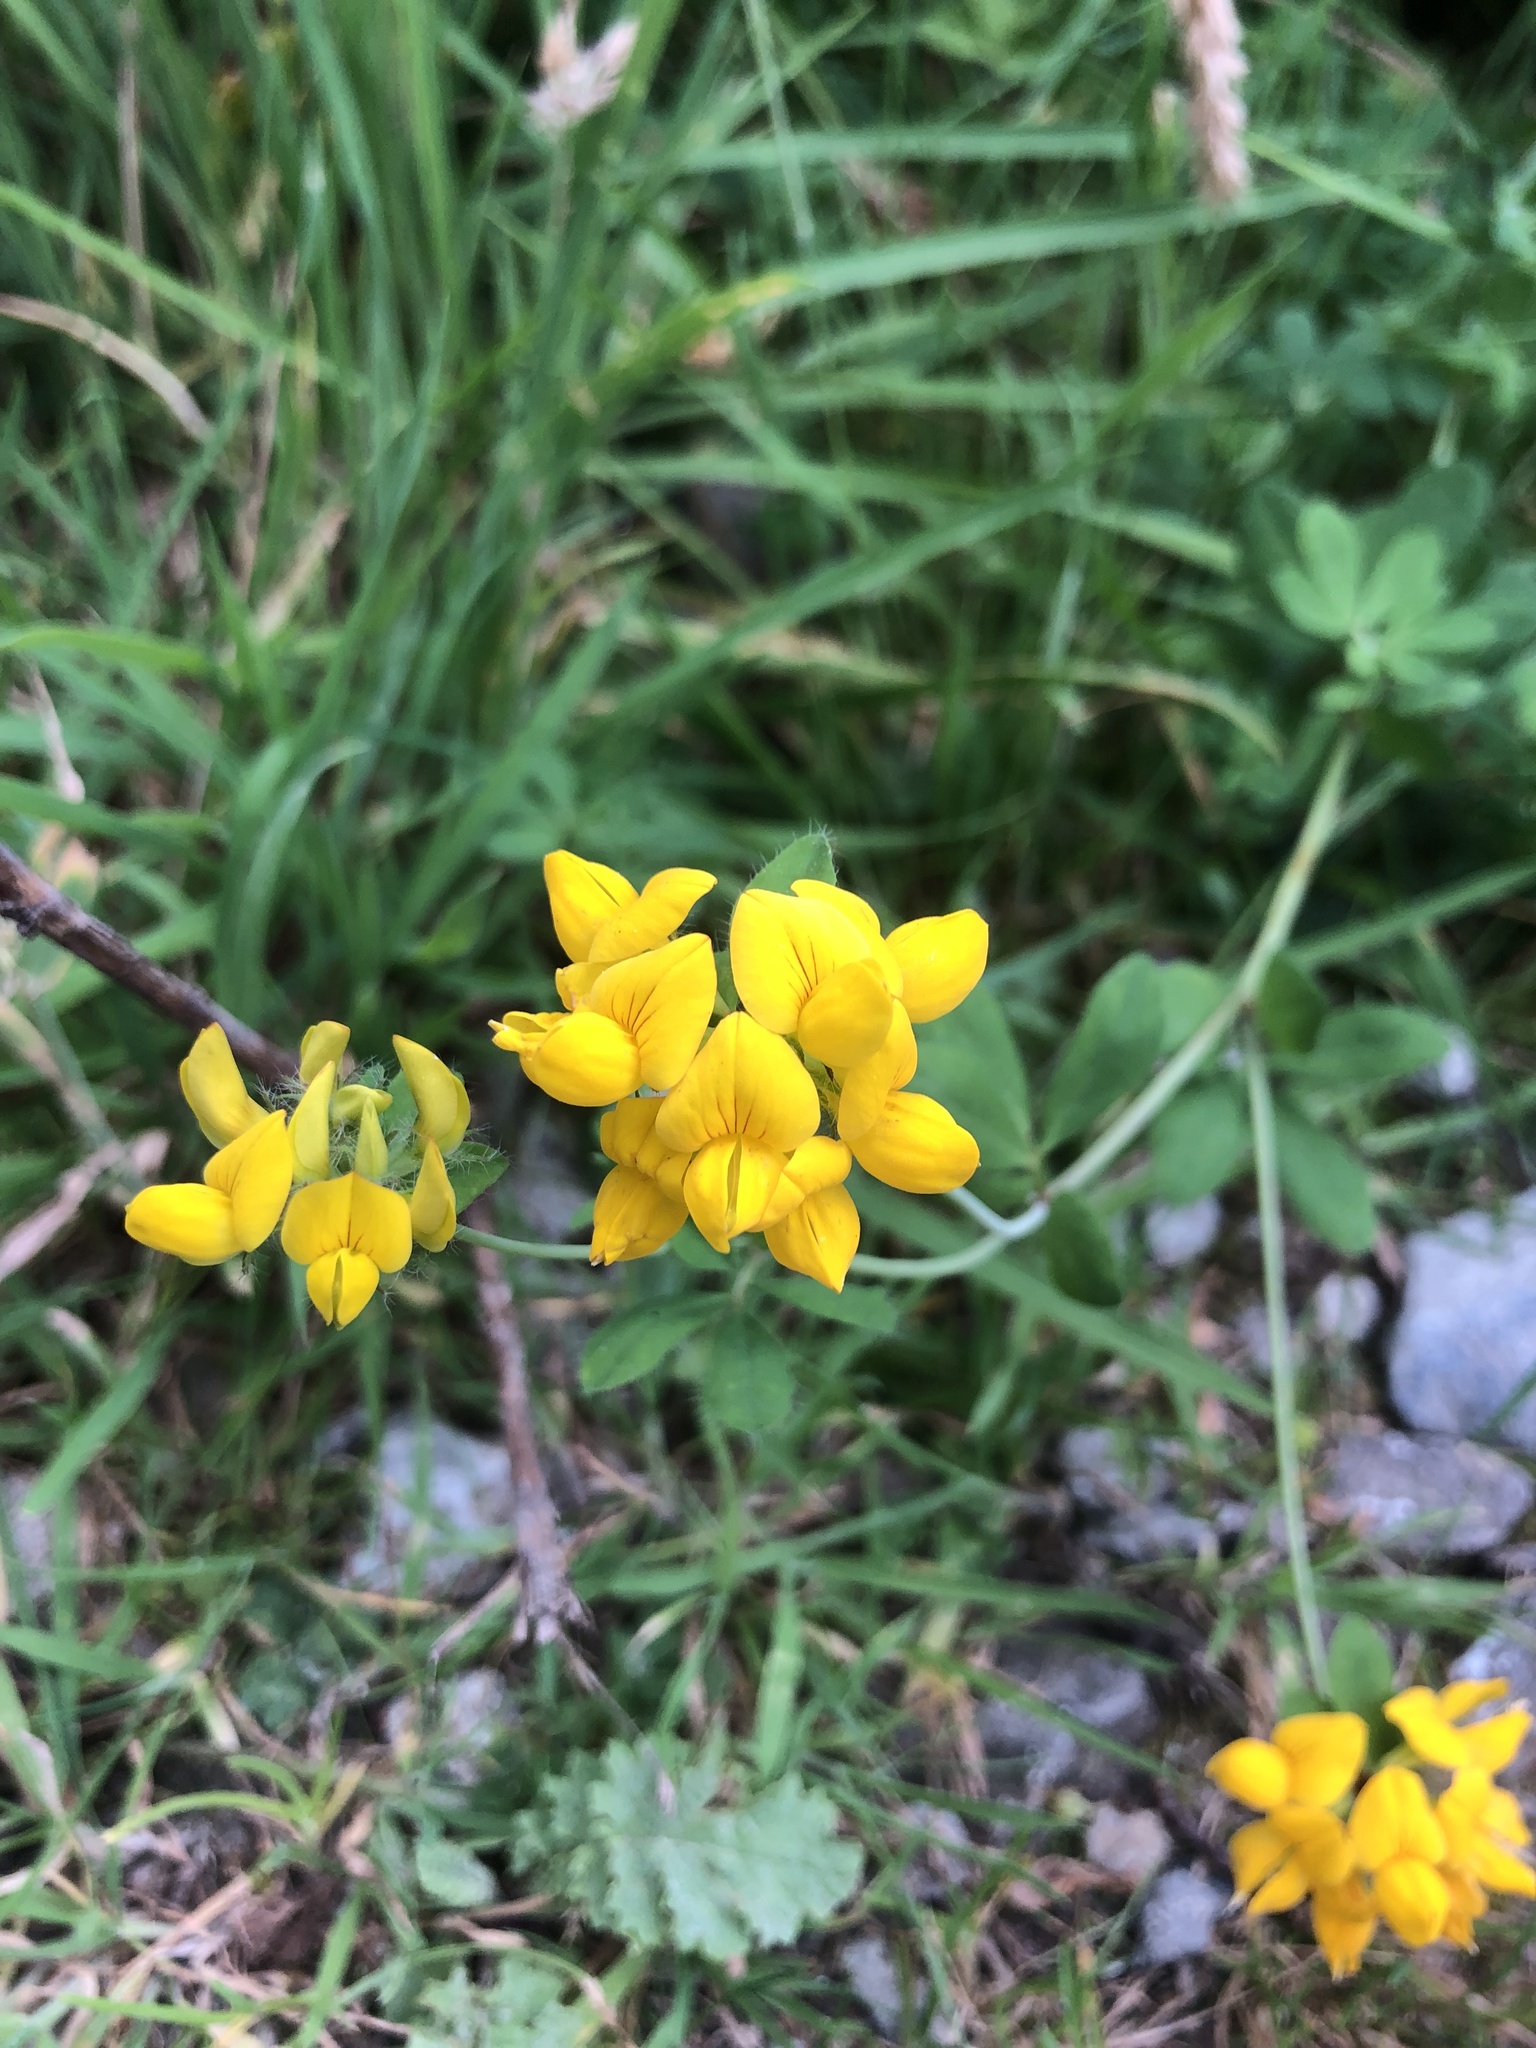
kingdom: Plantae
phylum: Tracheophyta
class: Magnoliopsida
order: Fabales
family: Fabaceae
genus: Lotus
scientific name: Lotus pedunculatus
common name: Greater birdsfoot-trefoil
